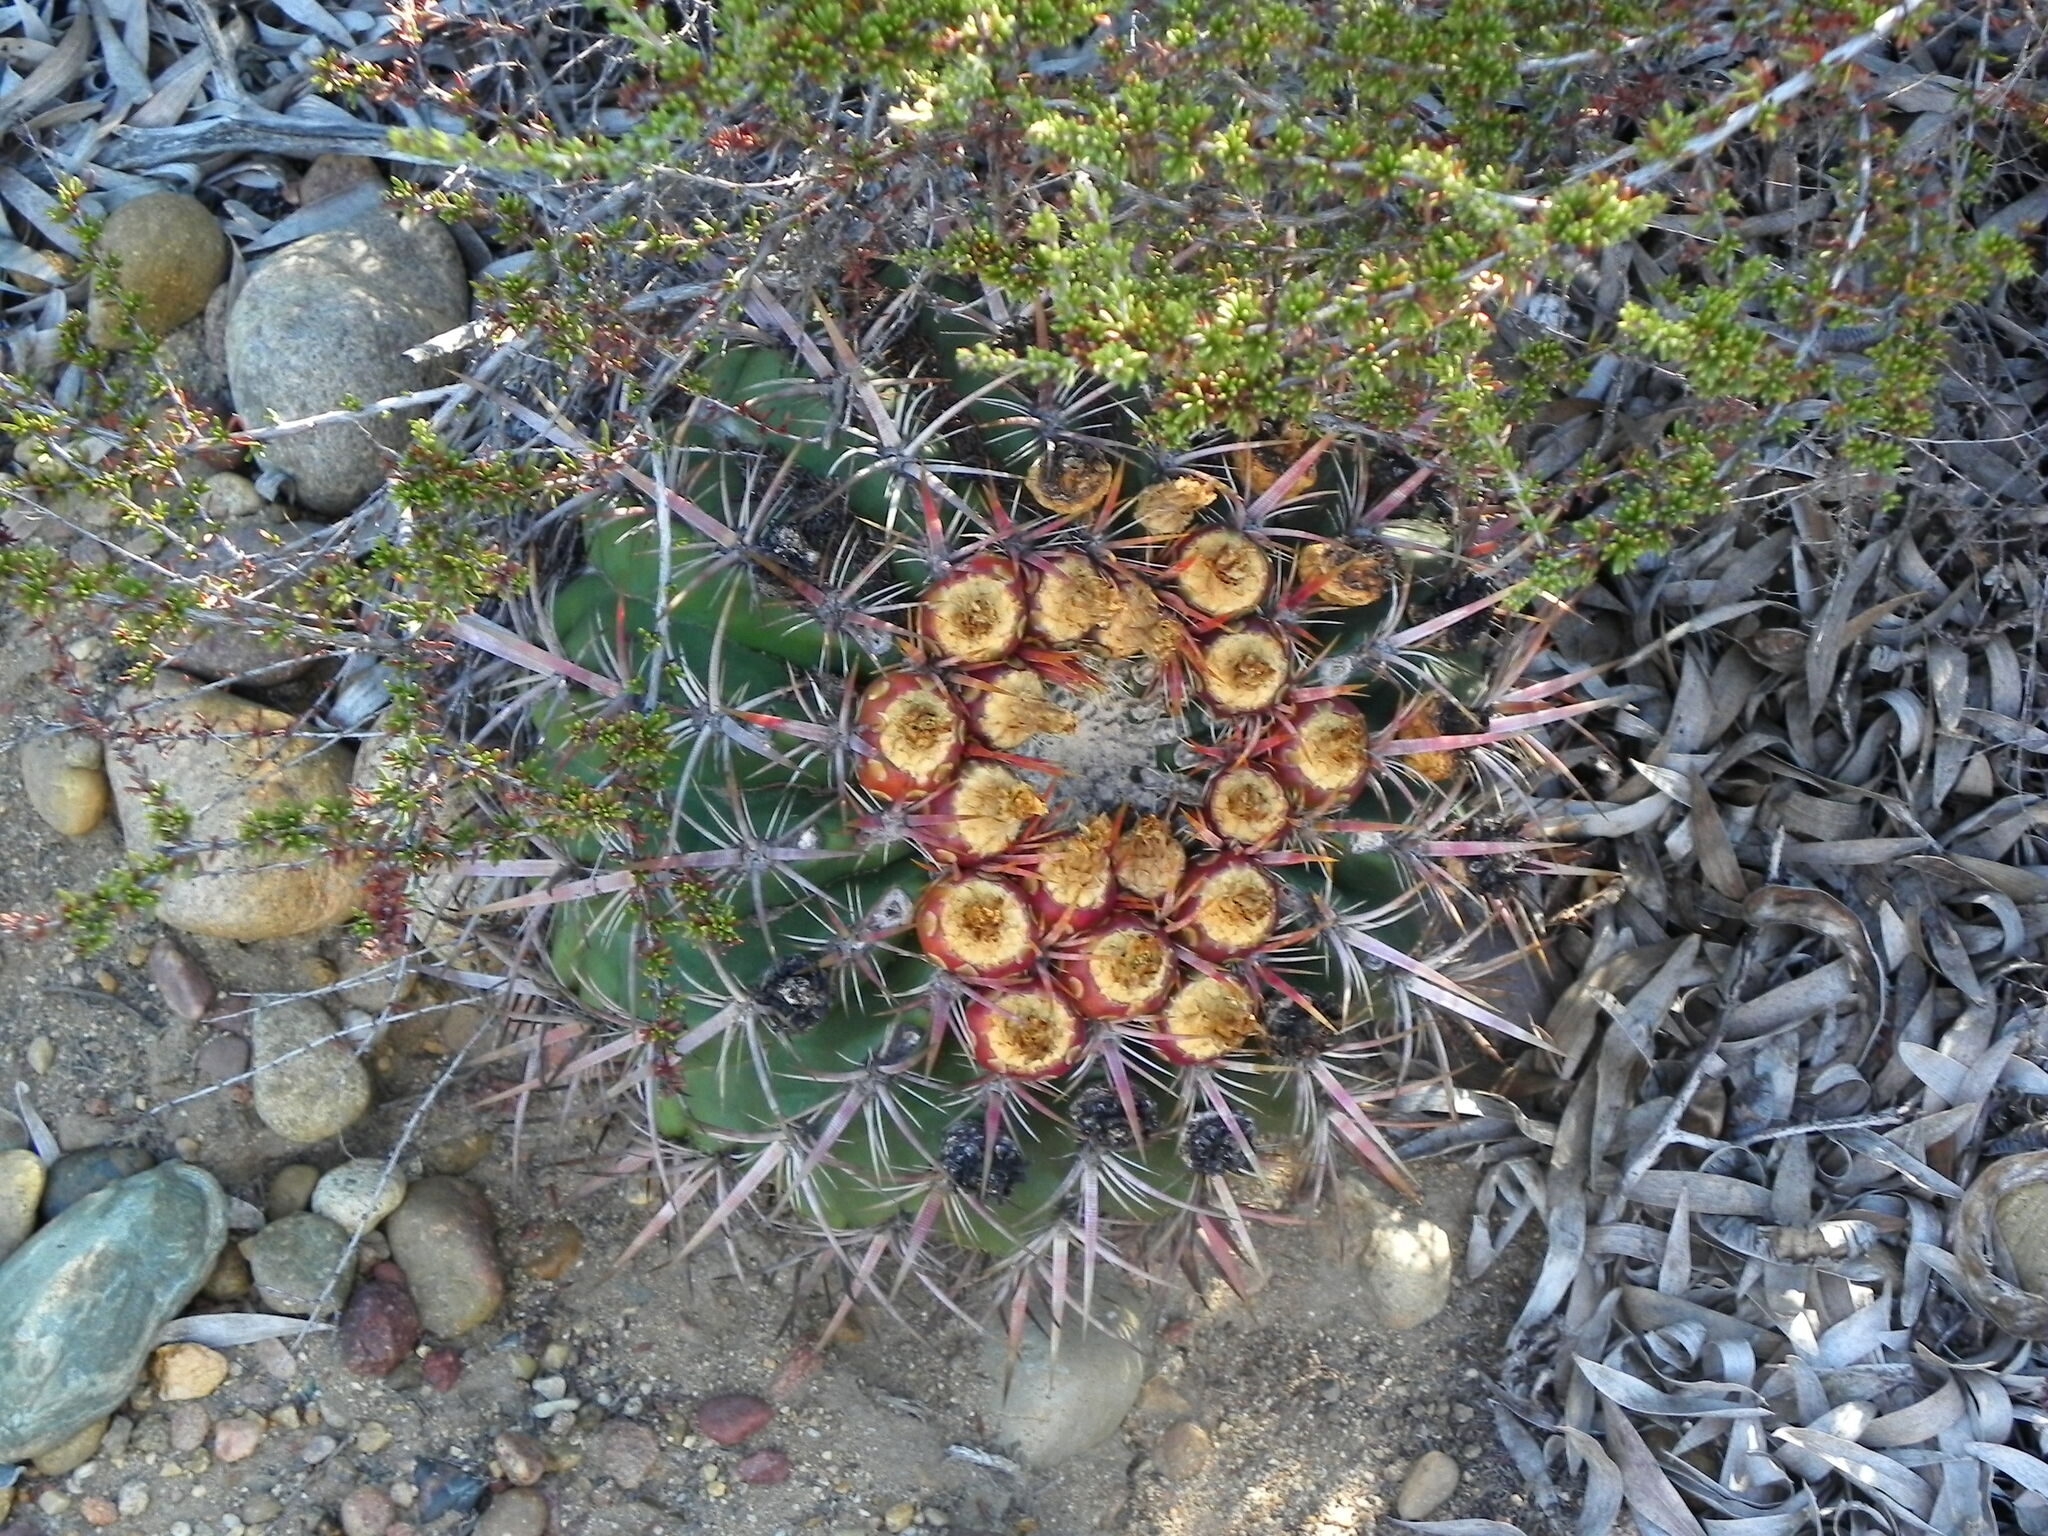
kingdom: Plantae
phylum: Tracheophyta
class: Magnoliopsida
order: Caryophyllales
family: Cactaceae
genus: Ferocactus
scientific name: Ferocactus viridescens
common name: San diego barrel cactus
